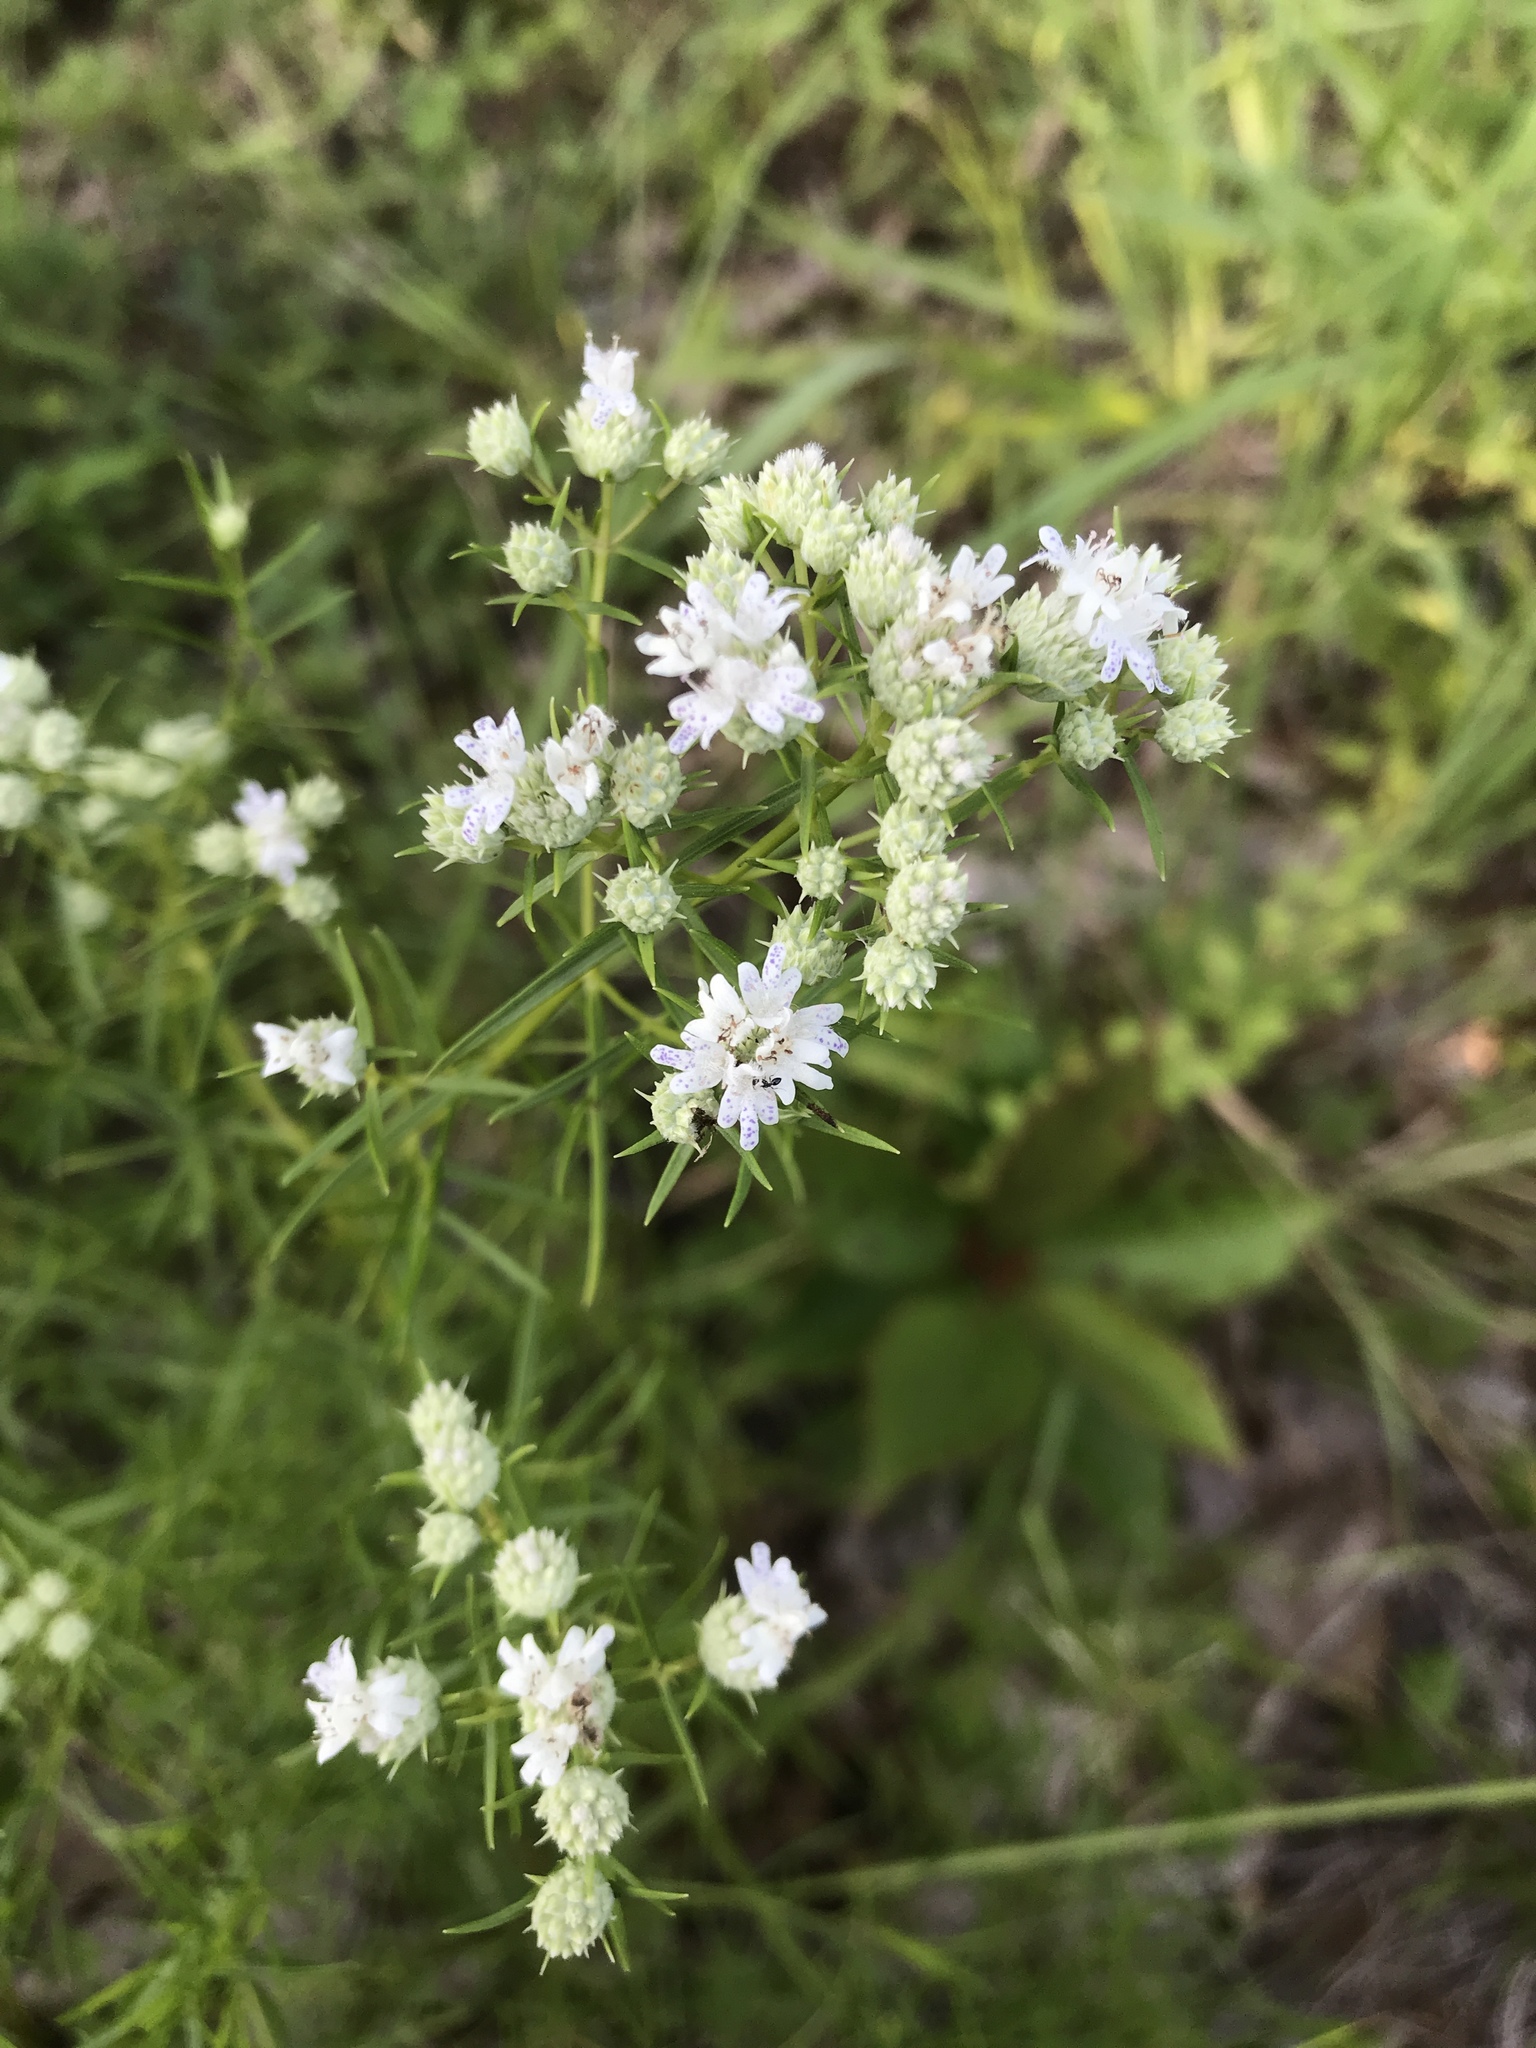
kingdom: Plantae
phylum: Tracheophyta
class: Magnoliopsida
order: Lamiales
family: Lamiaceae
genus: Pycnanthemum
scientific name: Pycnanthemum tenuifolium
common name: Narrow-leaf mountain-mint
